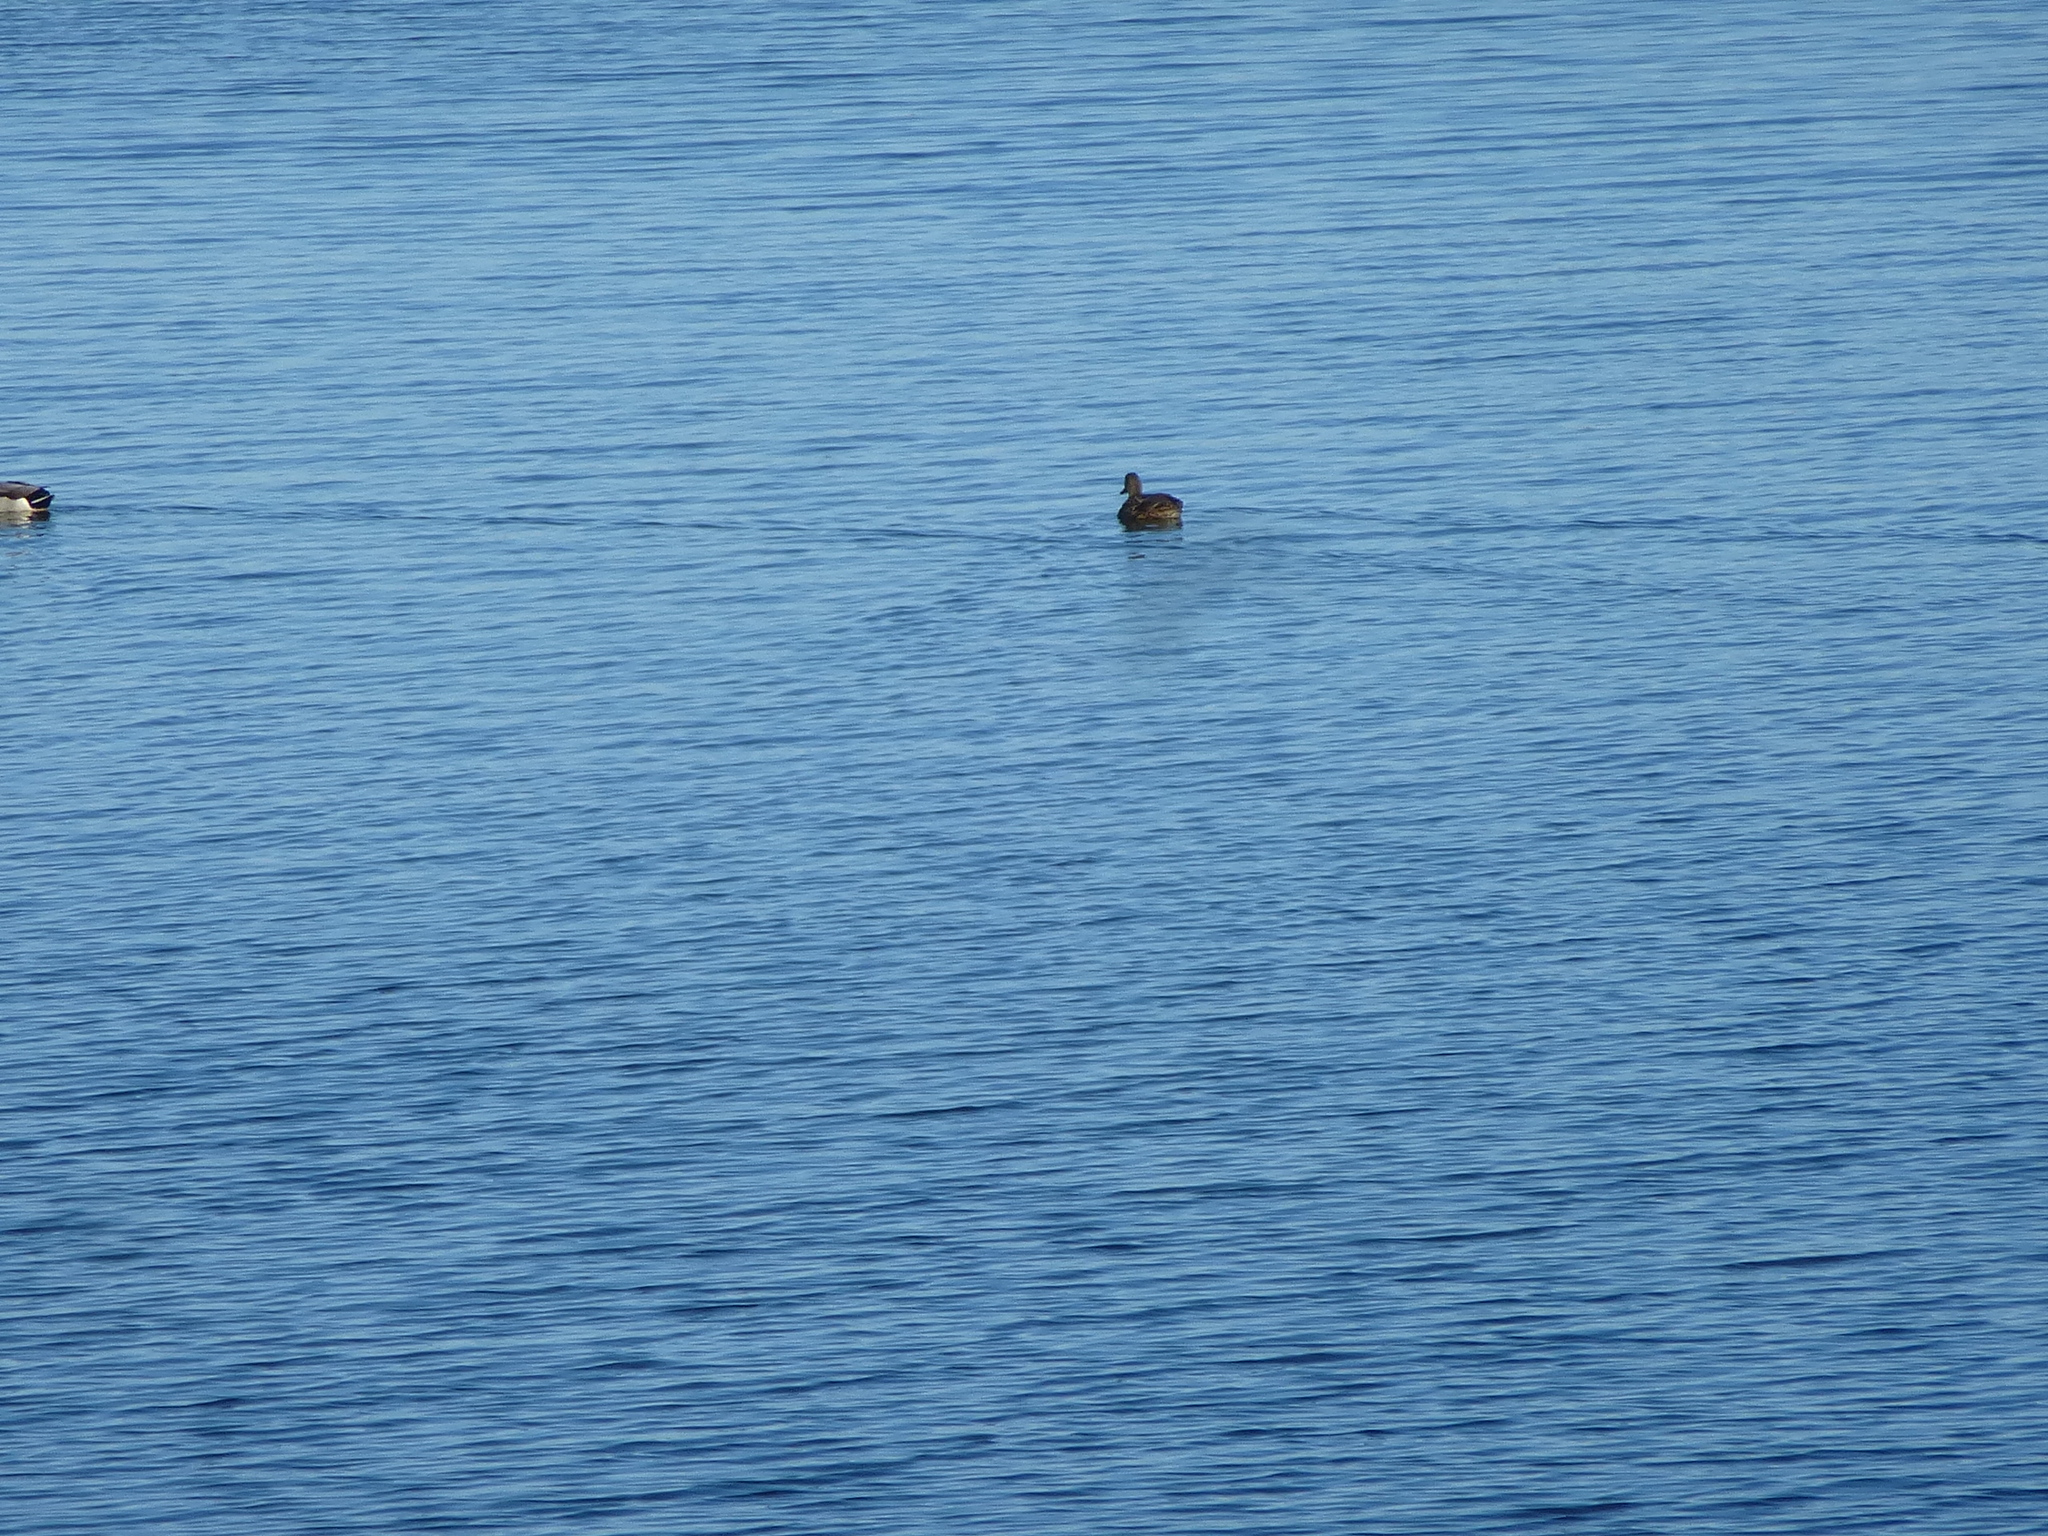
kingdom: Animalia
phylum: Chordata
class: Aves
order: Anseriformes
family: Anatidae
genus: Anas
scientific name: Anas rubripes
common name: American black duck
